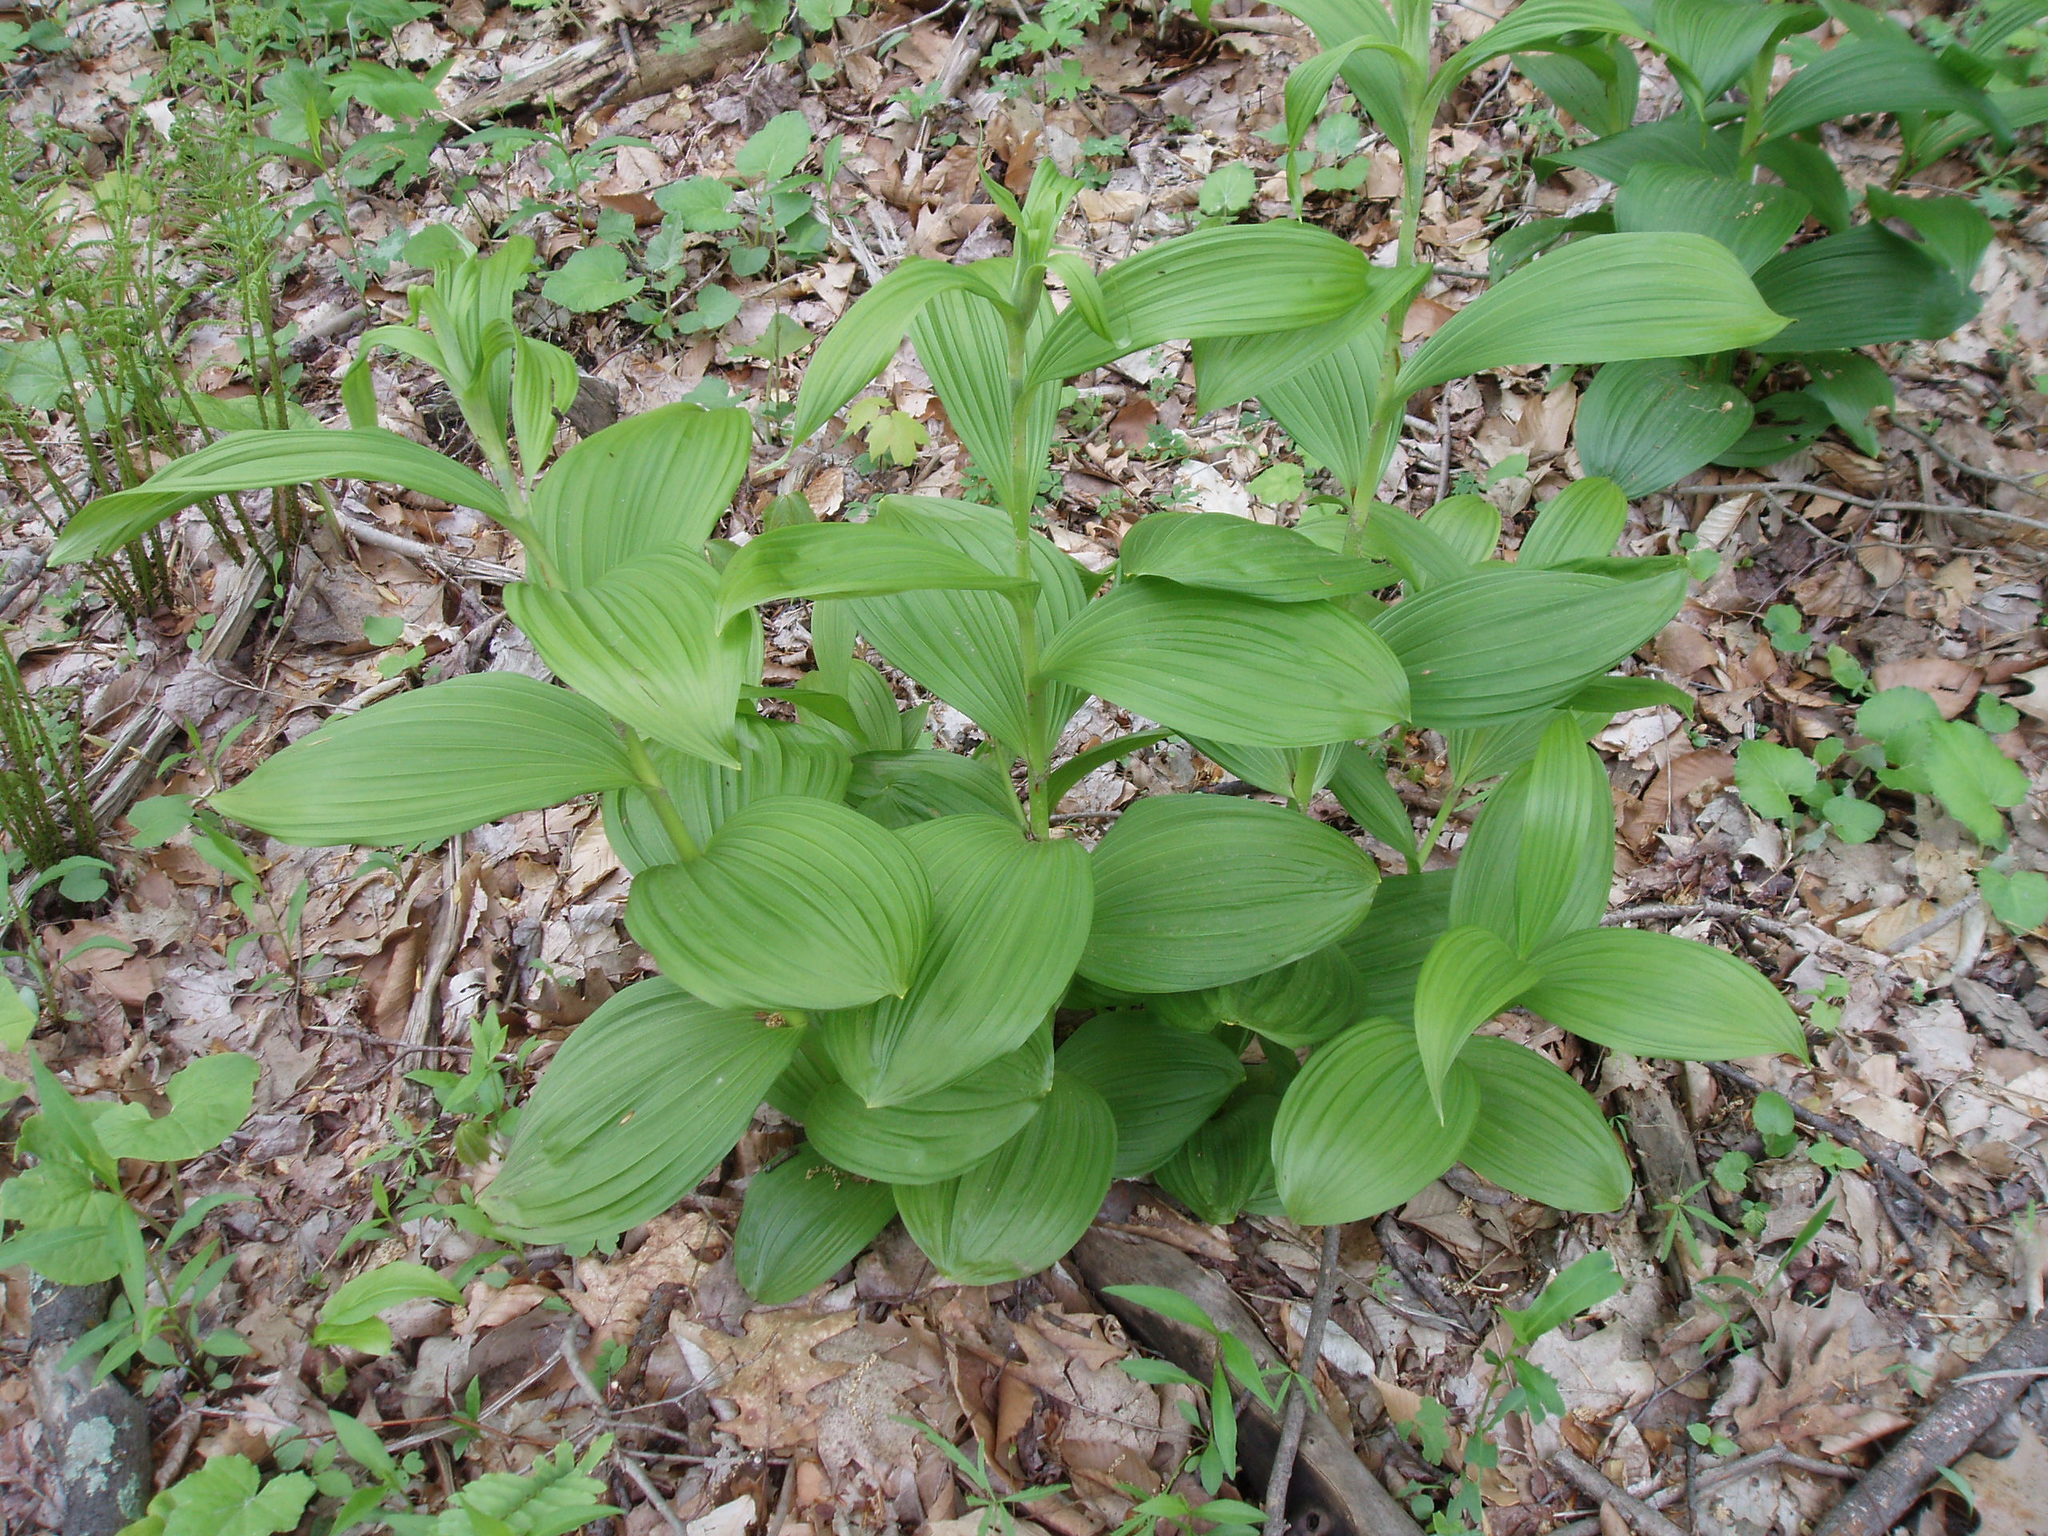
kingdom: Plantae
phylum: Tracheophyta
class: Liliopsida
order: Liliales
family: Melanthiaceae
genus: Veratrum
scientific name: Veratrum viride
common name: American false hellebore
